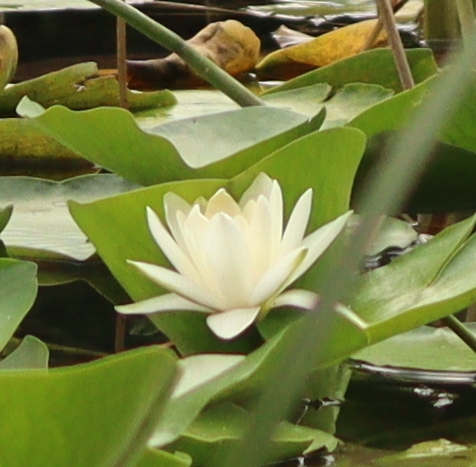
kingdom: Plantae
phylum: Tracheophyta
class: Magnoliopsida
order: Nymphaeales
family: Nymphaeaceae
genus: Nymphaea
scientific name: Nymphaea alba
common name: White water-lily
